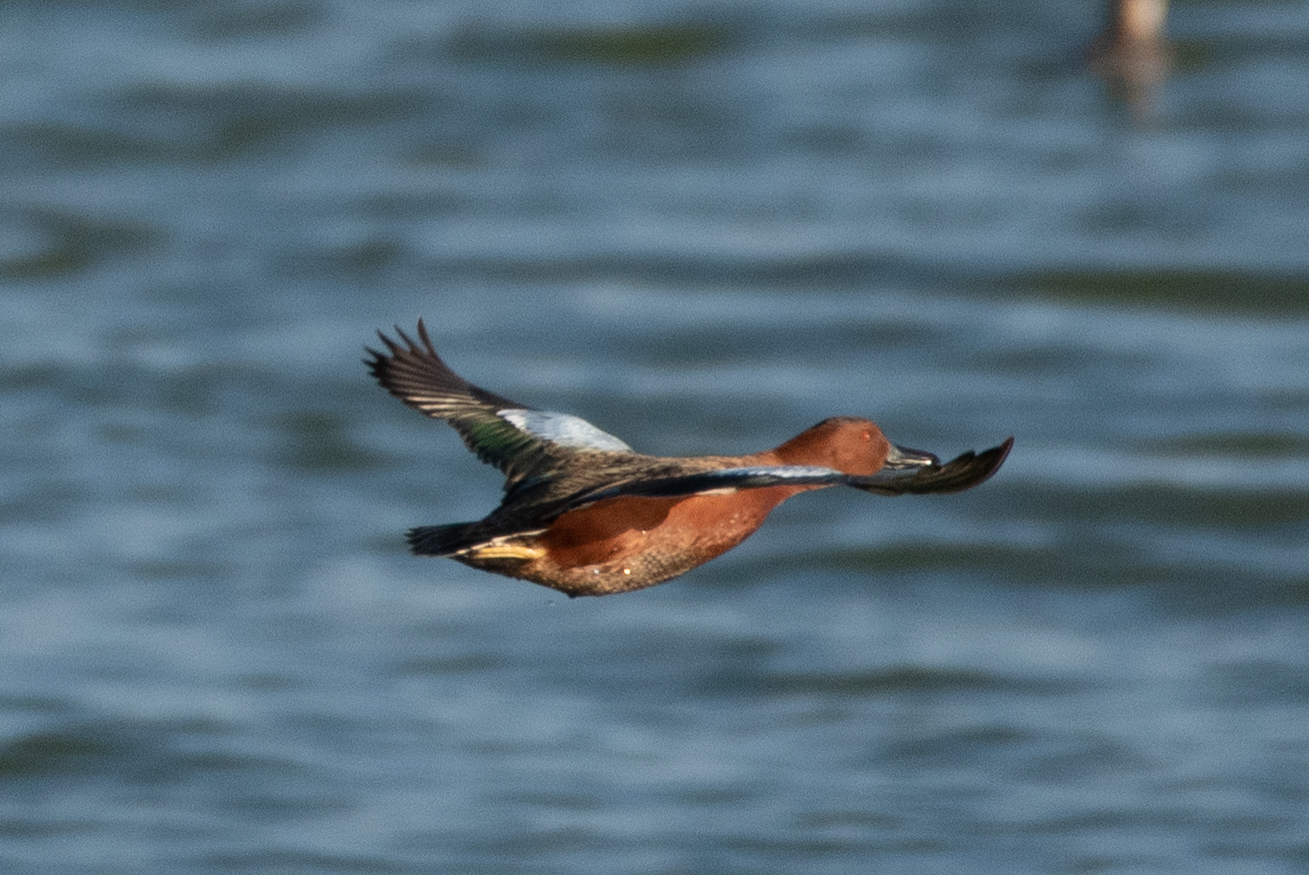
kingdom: Animalia
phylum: Chordata
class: Aves
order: Anseriformes
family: Anatidae
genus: Spatula
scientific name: Spatula cyanoptera
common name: Cinnamon teal
